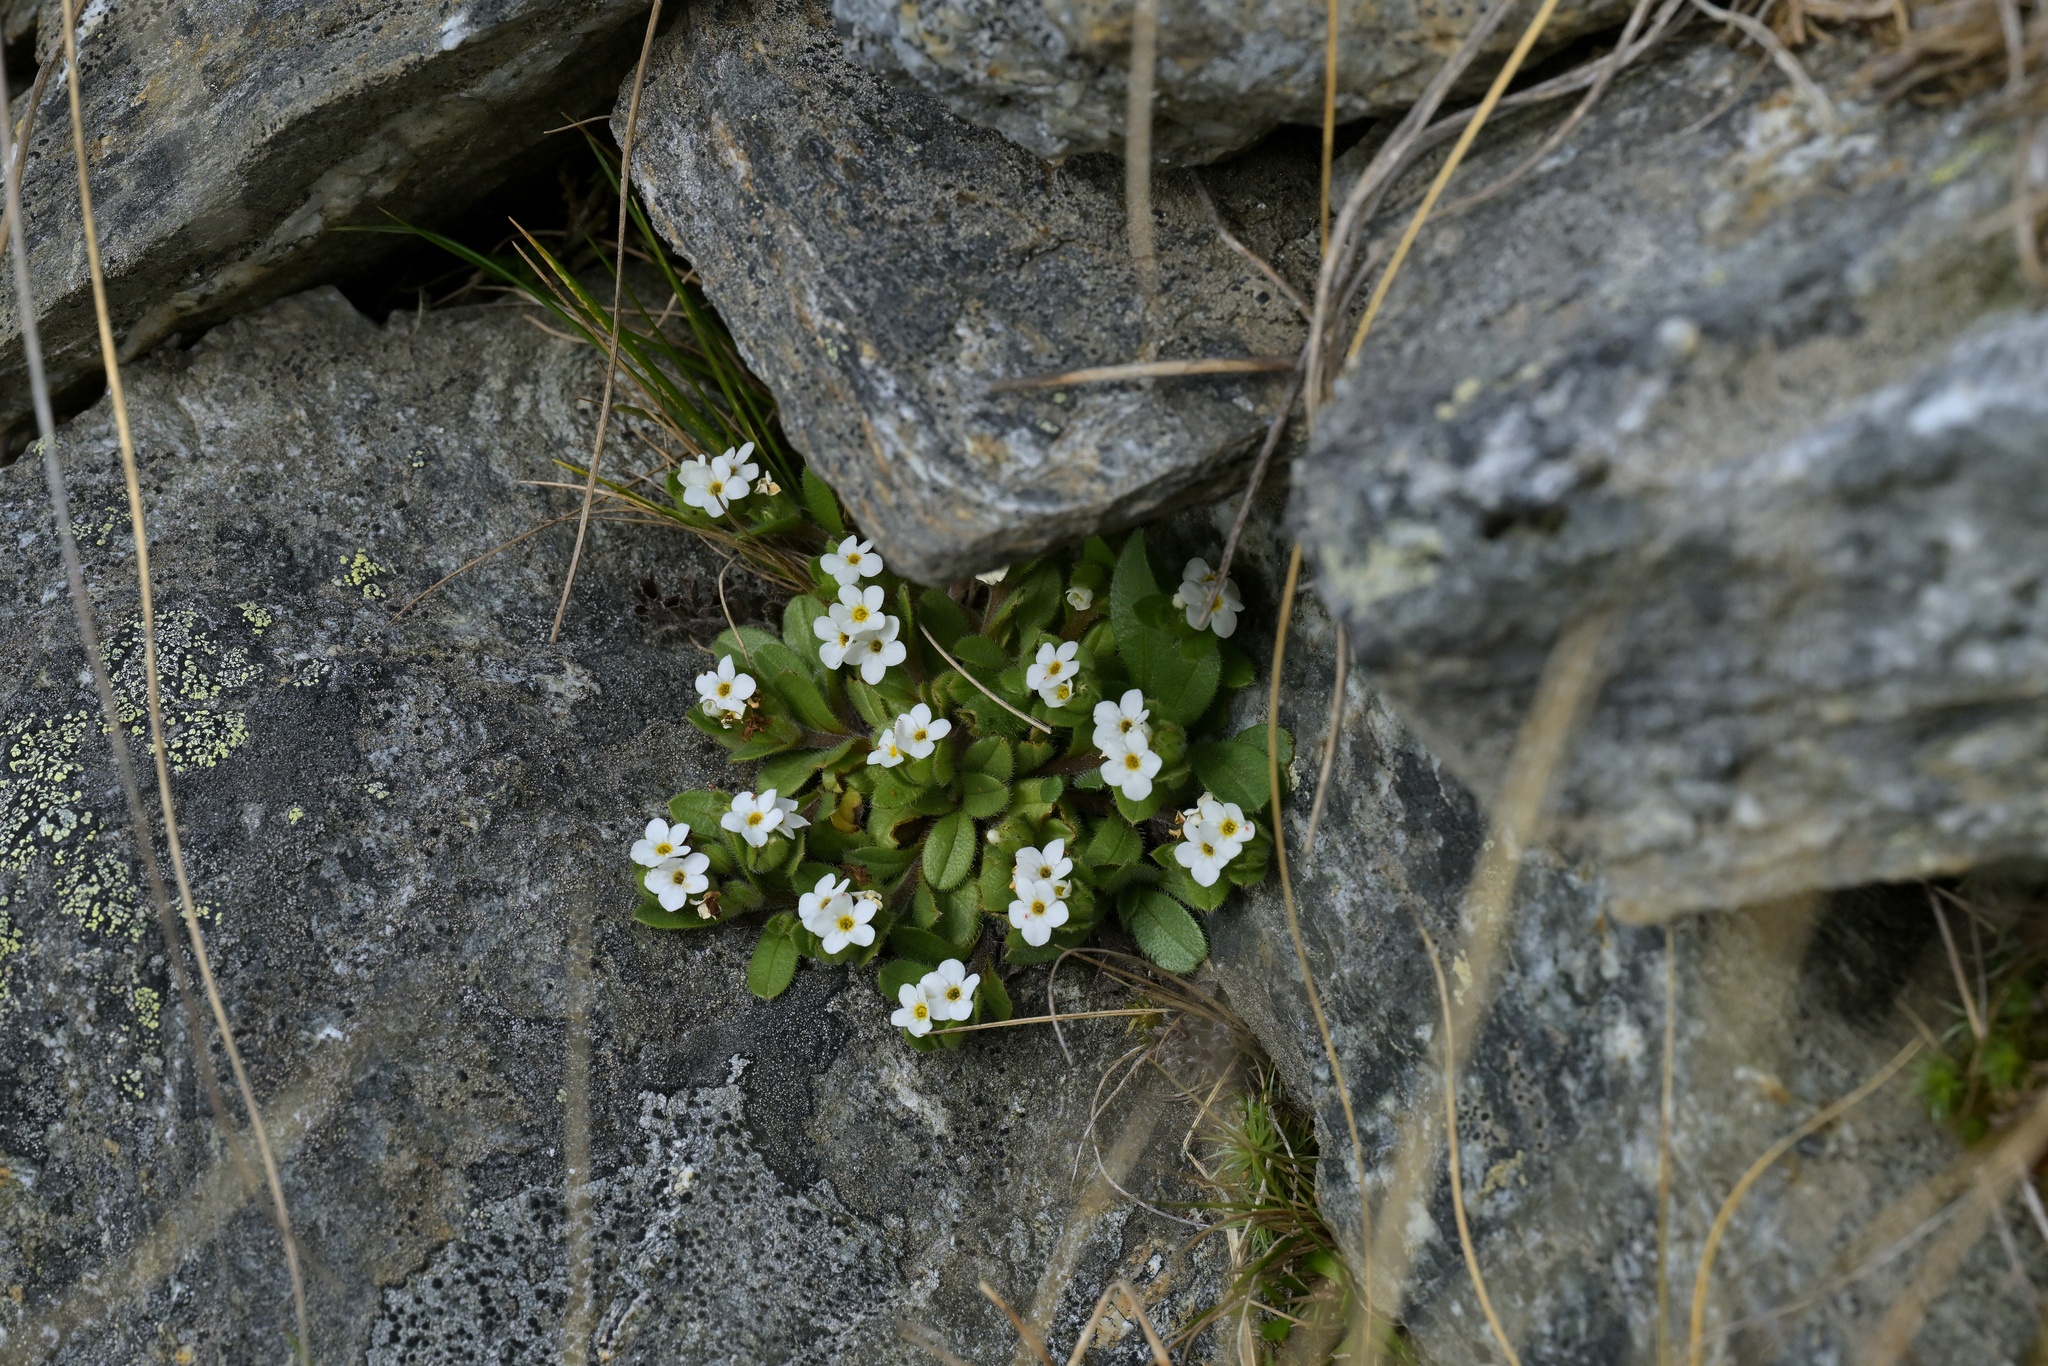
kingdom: Plantae
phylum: Tracheophyta
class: Magnoliopsida
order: Boraginales
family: Boraginaceae
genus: Myosotis
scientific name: Myosotis lyallii
